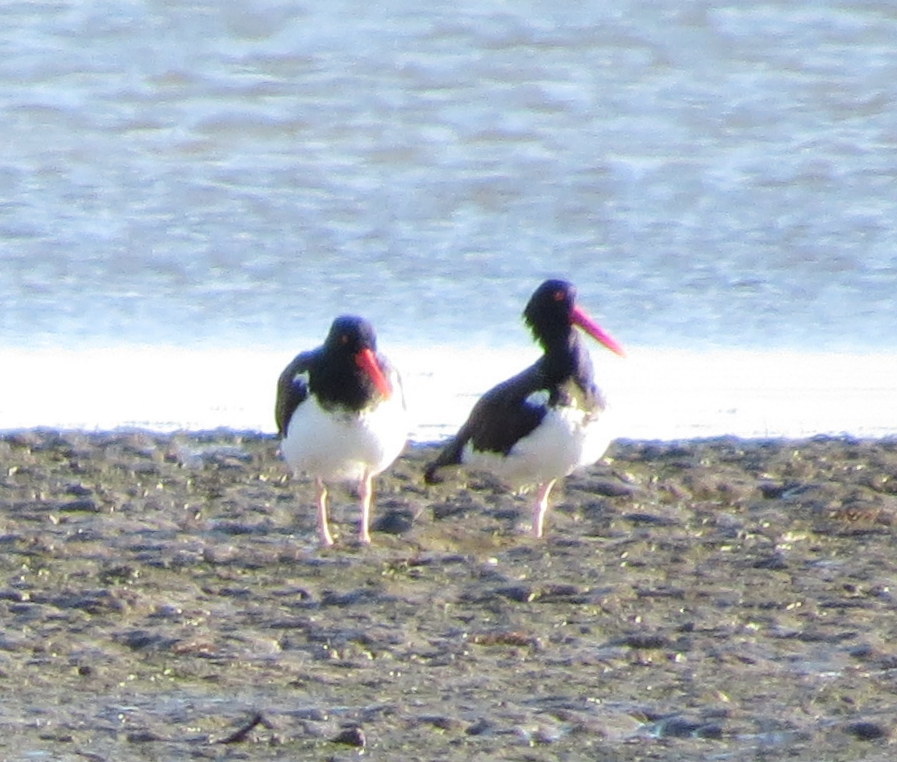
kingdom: Animalia
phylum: Chordata
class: Aves
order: Charadriiformes
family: Haematopodidae
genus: Haematopus
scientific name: Haematopus palliatus
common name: American oystercatcher
